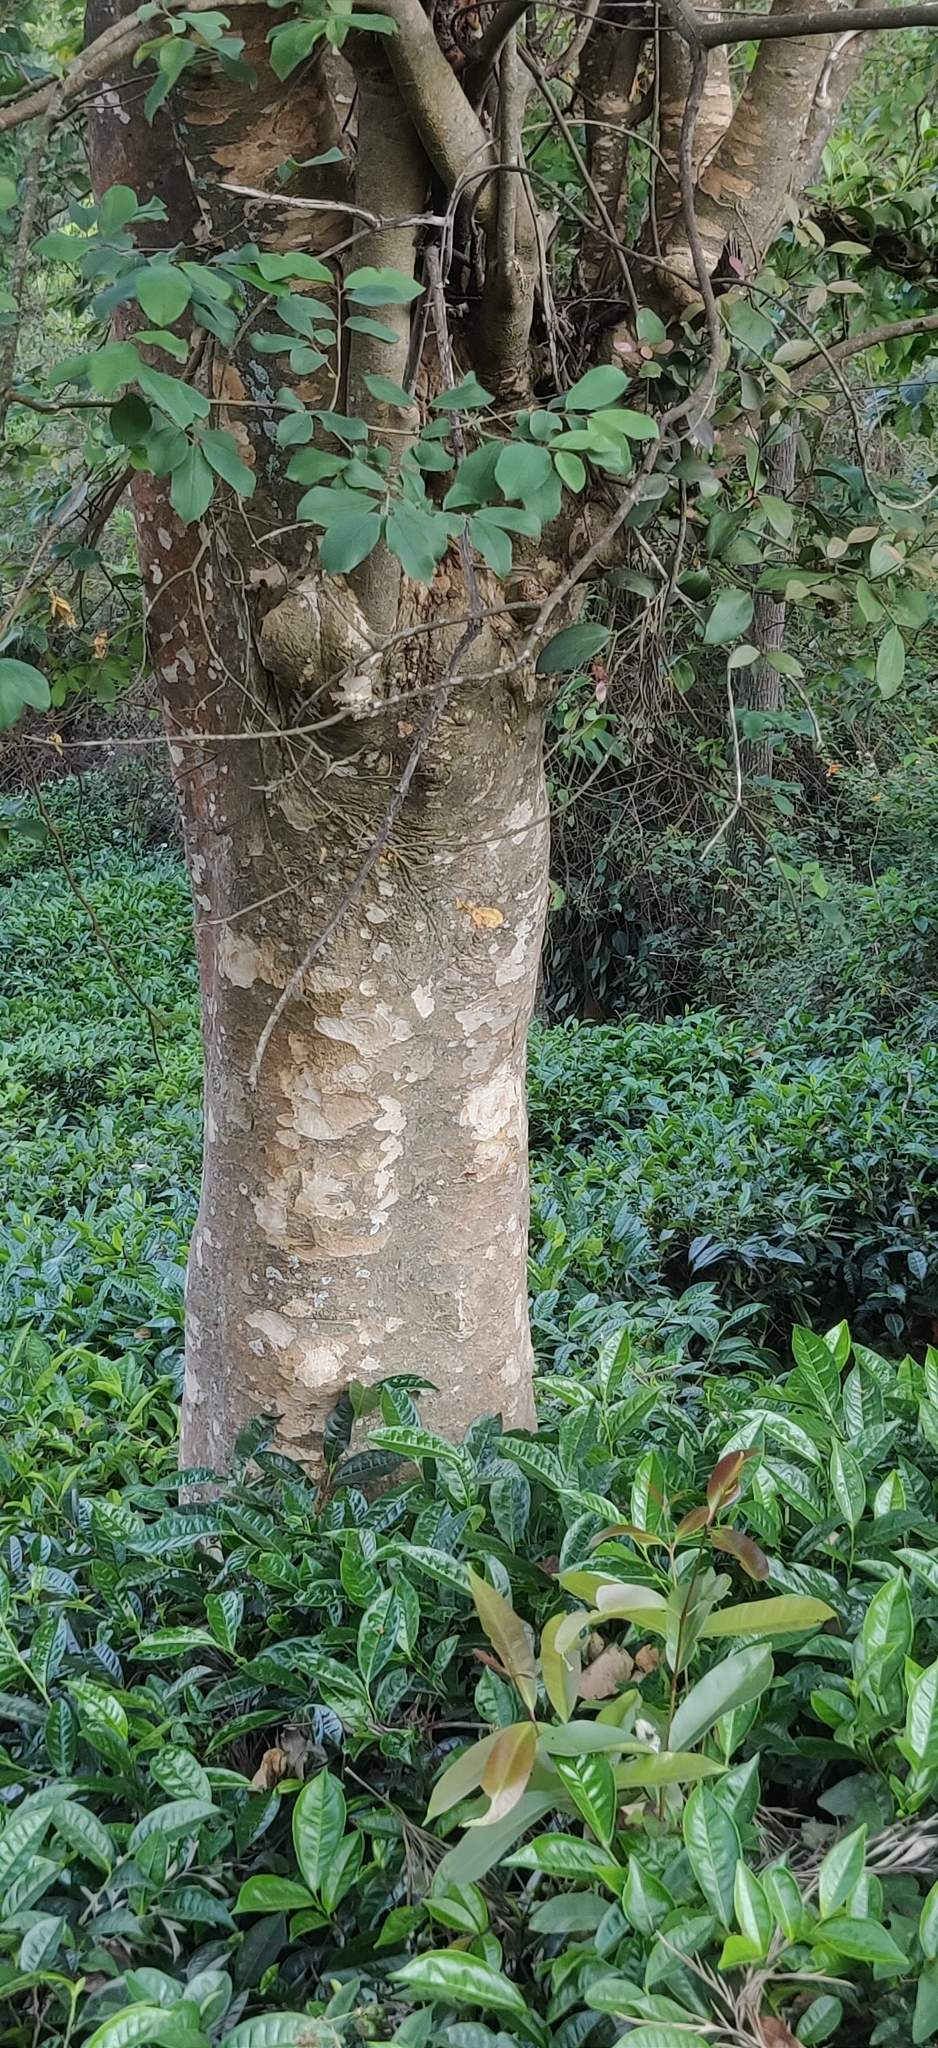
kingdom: Plantae
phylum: Tracheophyta
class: Magnoliopsida
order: Myrtales
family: Combretaceae
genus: Terminalia
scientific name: Terminalia anogeissiana
